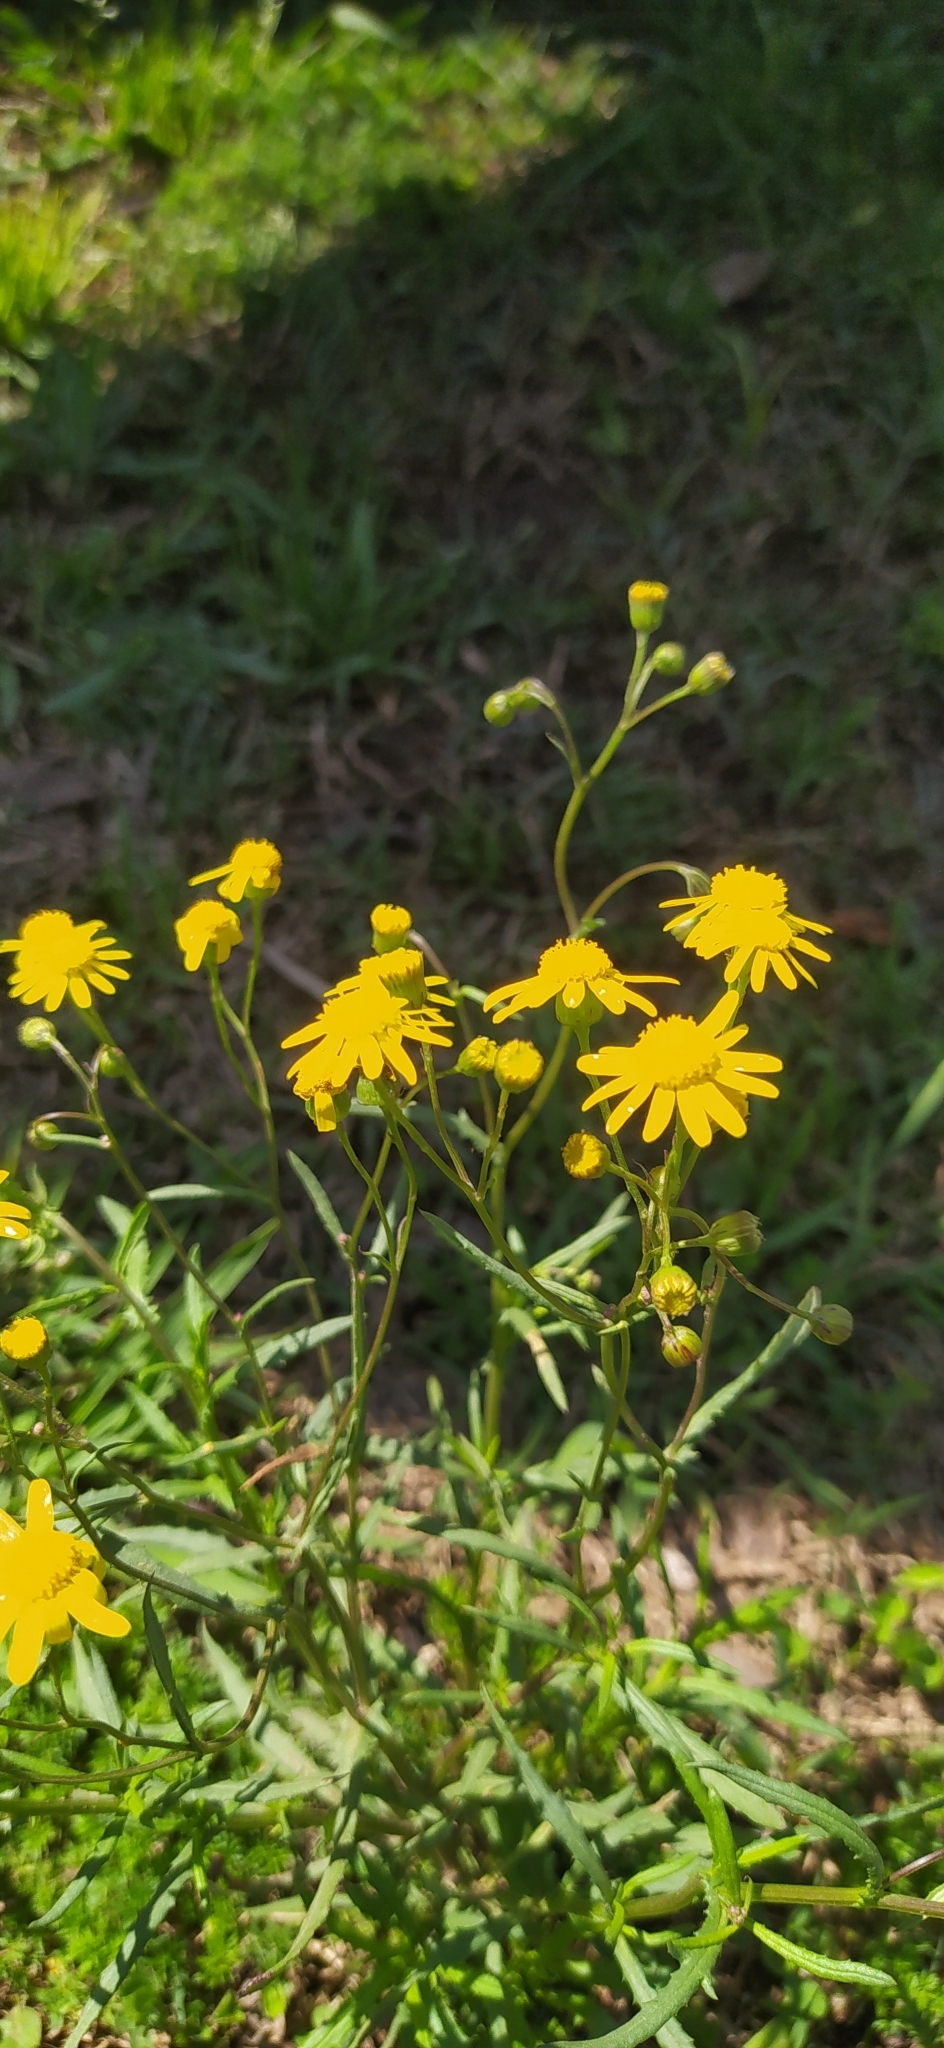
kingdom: Plantae
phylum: Tracheophyta
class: Magnoliopsida
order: Asterales
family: Asteraceae
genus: Senecio
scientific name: Senecio madagascariensis
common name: Madagascar ragwort
